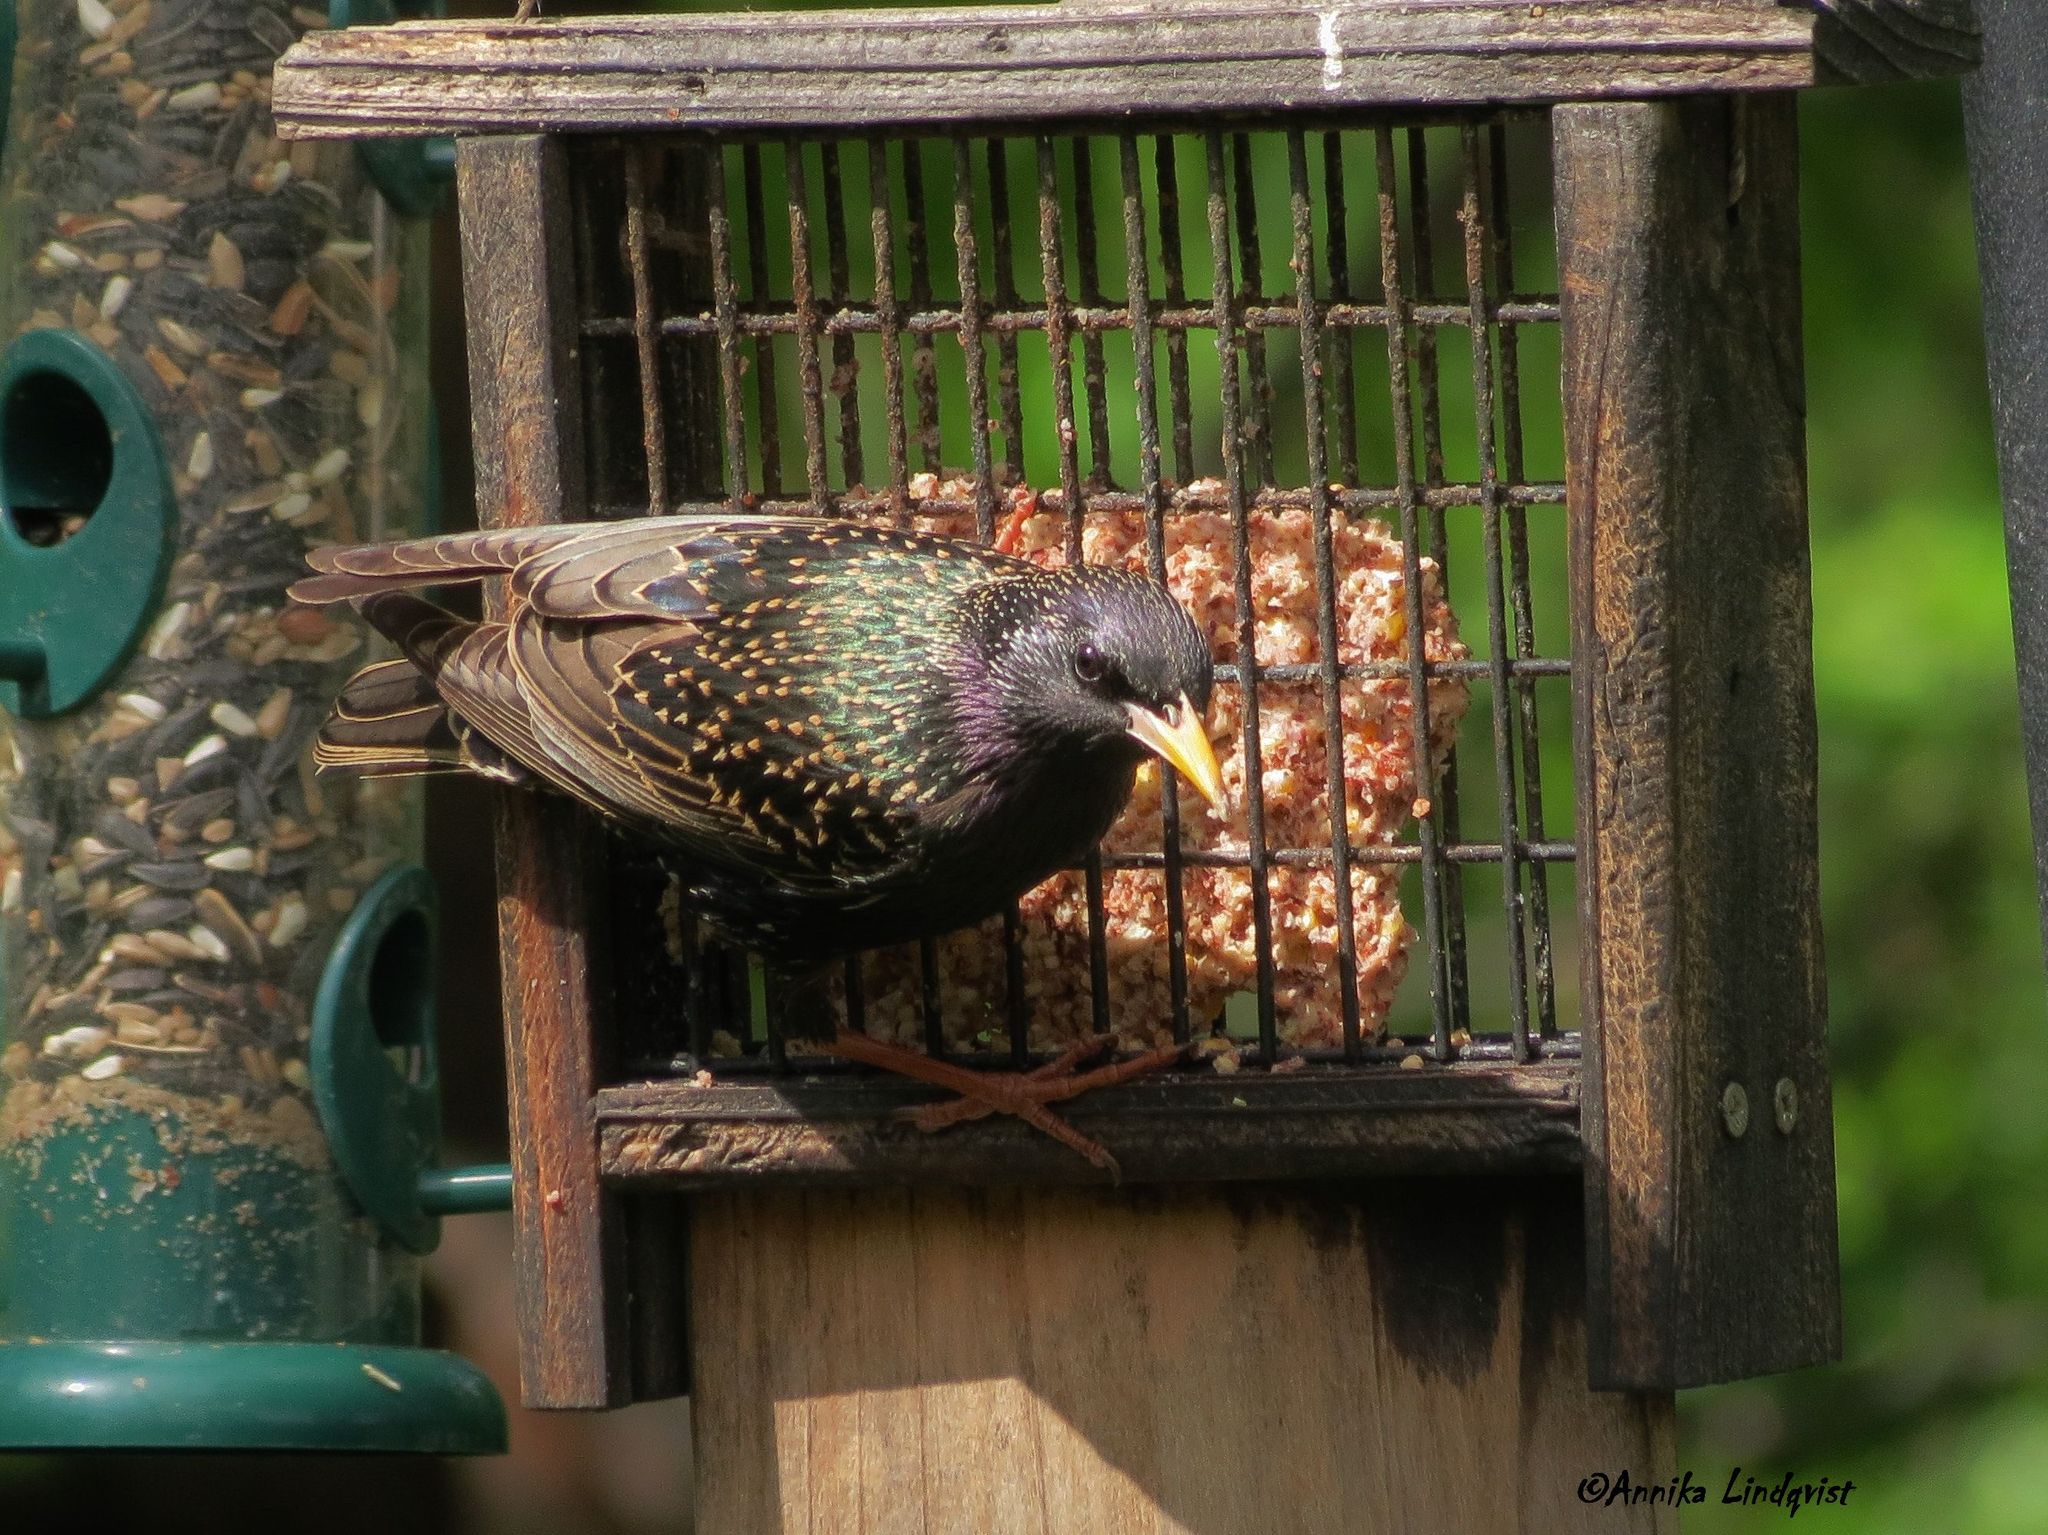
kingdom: Animalia
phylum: Chordata
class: Aves
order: Passeriformes
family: Sturnidae
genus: Sturnus
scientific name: Sturnus vulgaris
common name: Common starling
